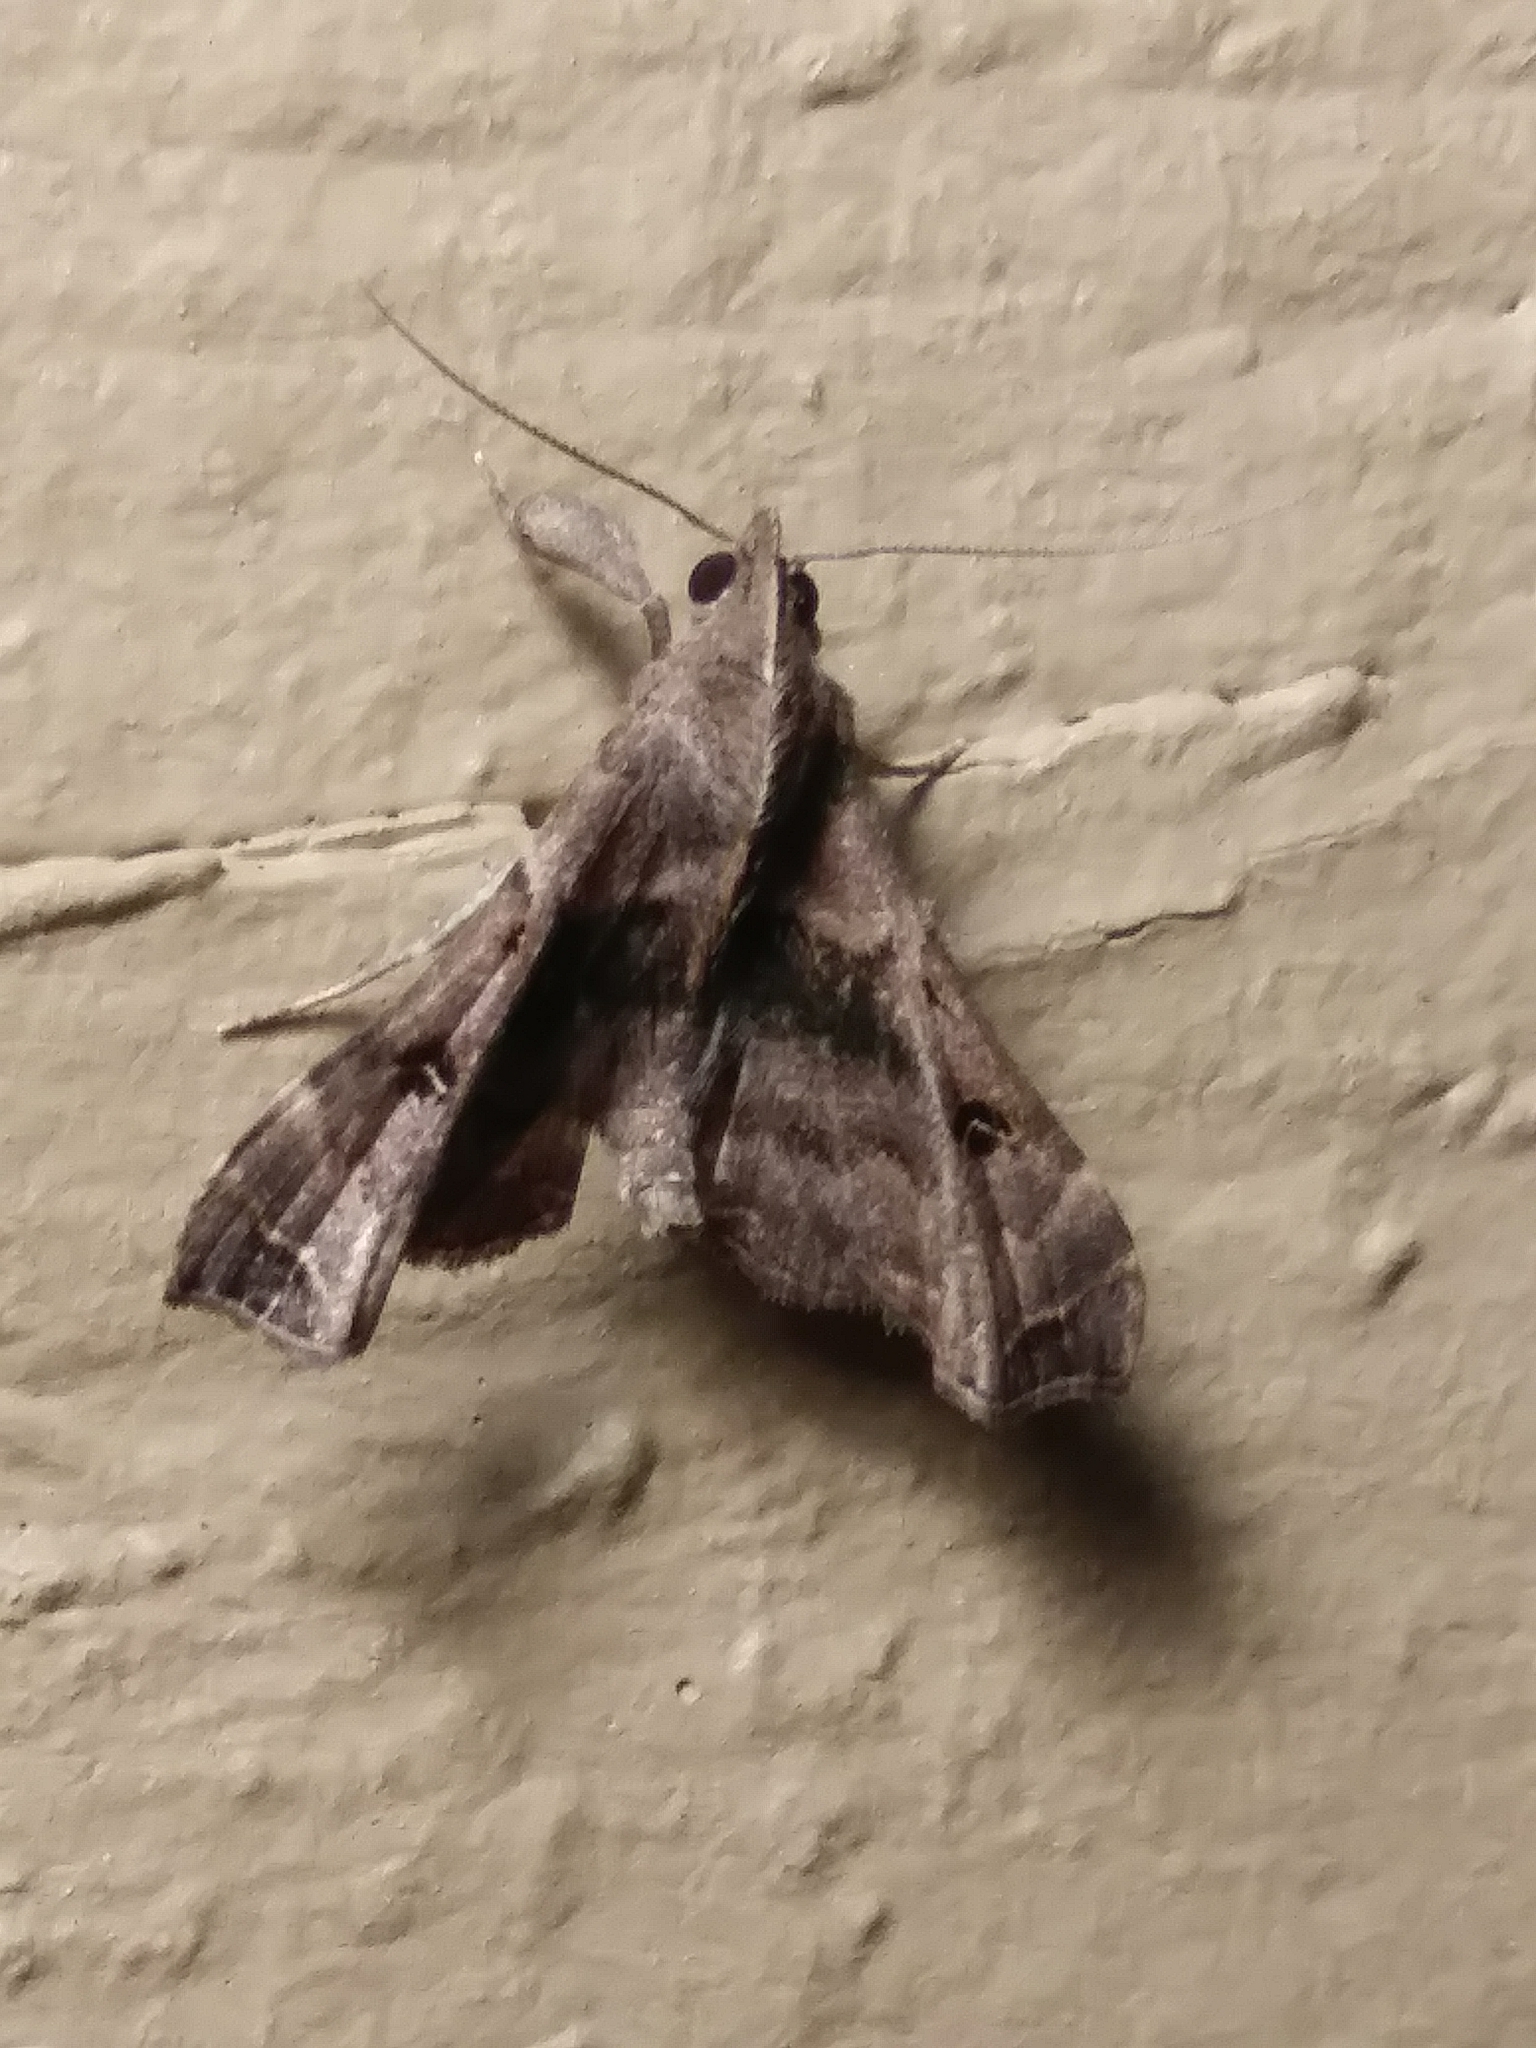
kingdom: Animalia
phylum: Arthropoda
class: Insecta
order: Lepidoptera
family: Erebidae
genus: Palthis
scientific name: Palthis asopialis
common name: Faint-spotted palthis moth
